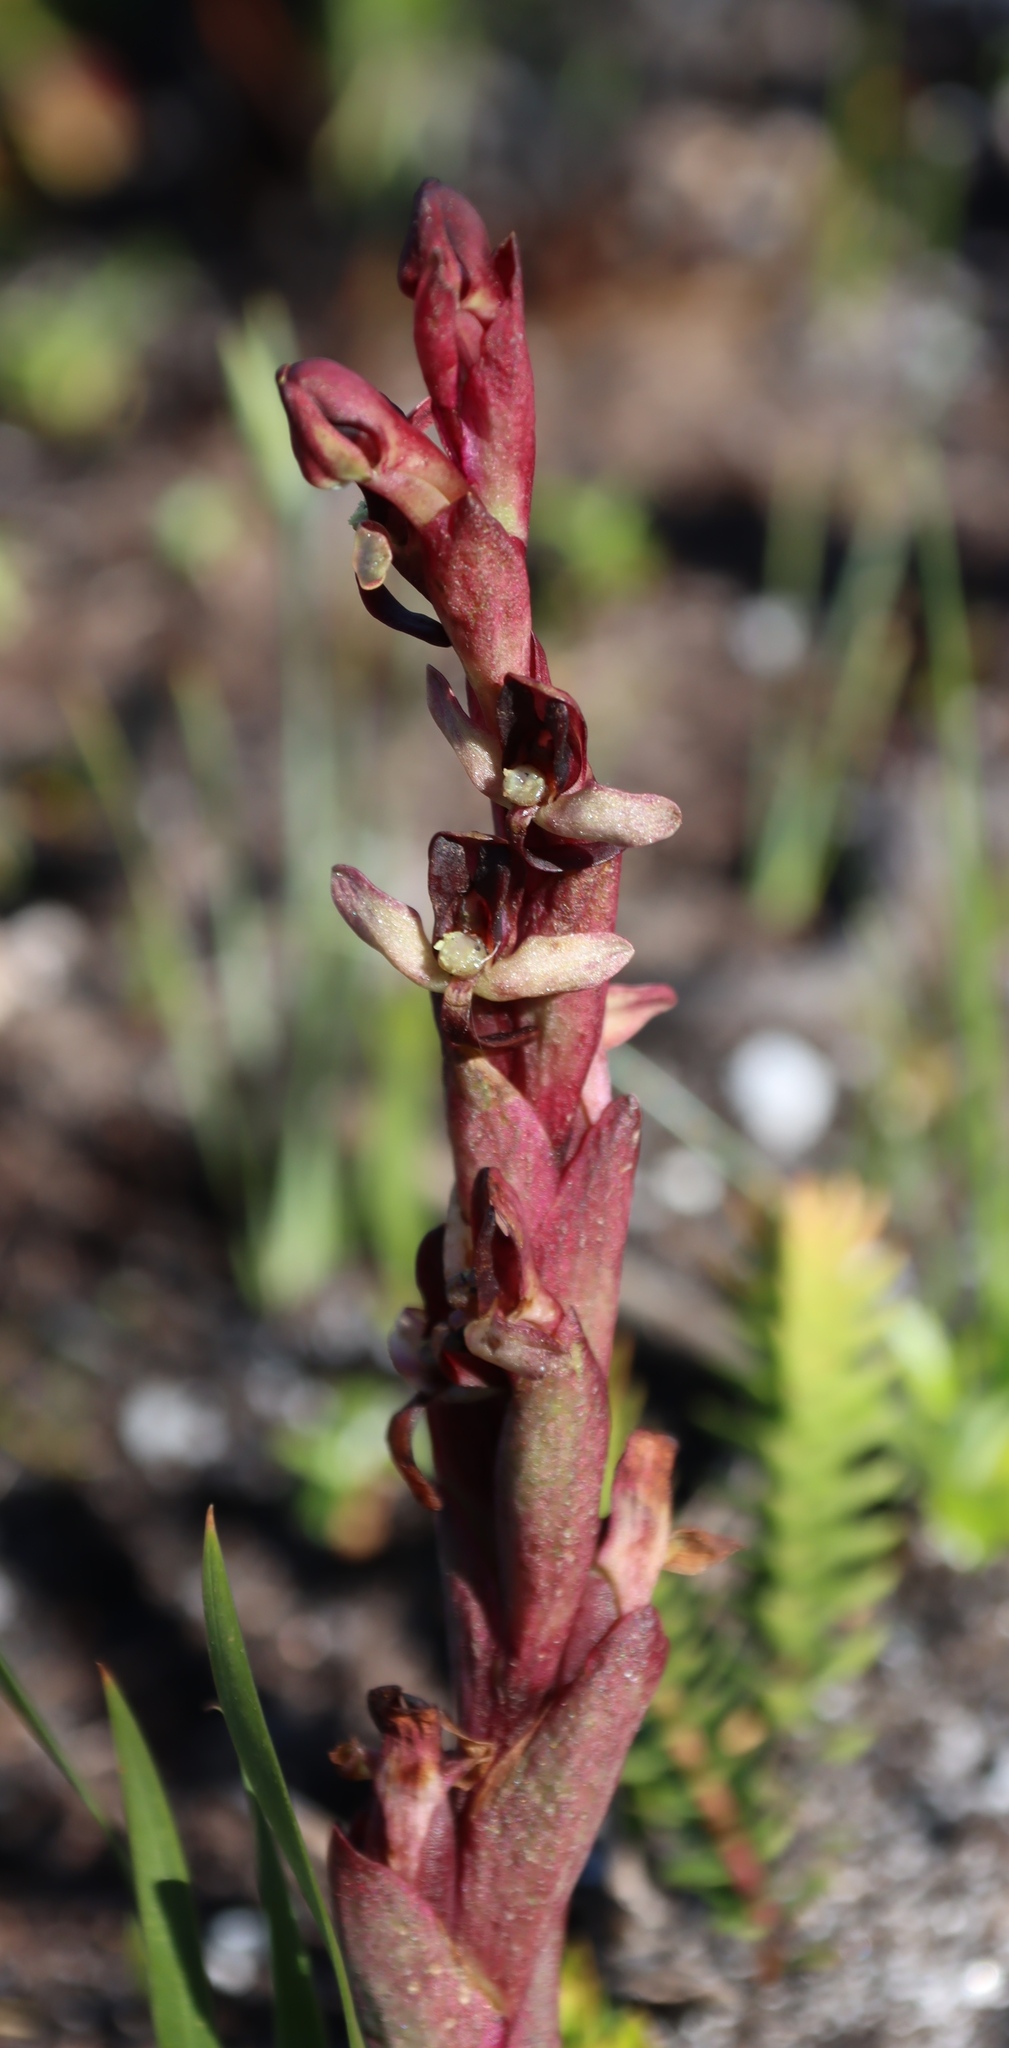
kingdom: Plantae
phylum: Tracheophyta
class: Liliopsida
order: Asparagales
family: Orchidaceae
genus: Disa
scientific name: Disa ophrydea
